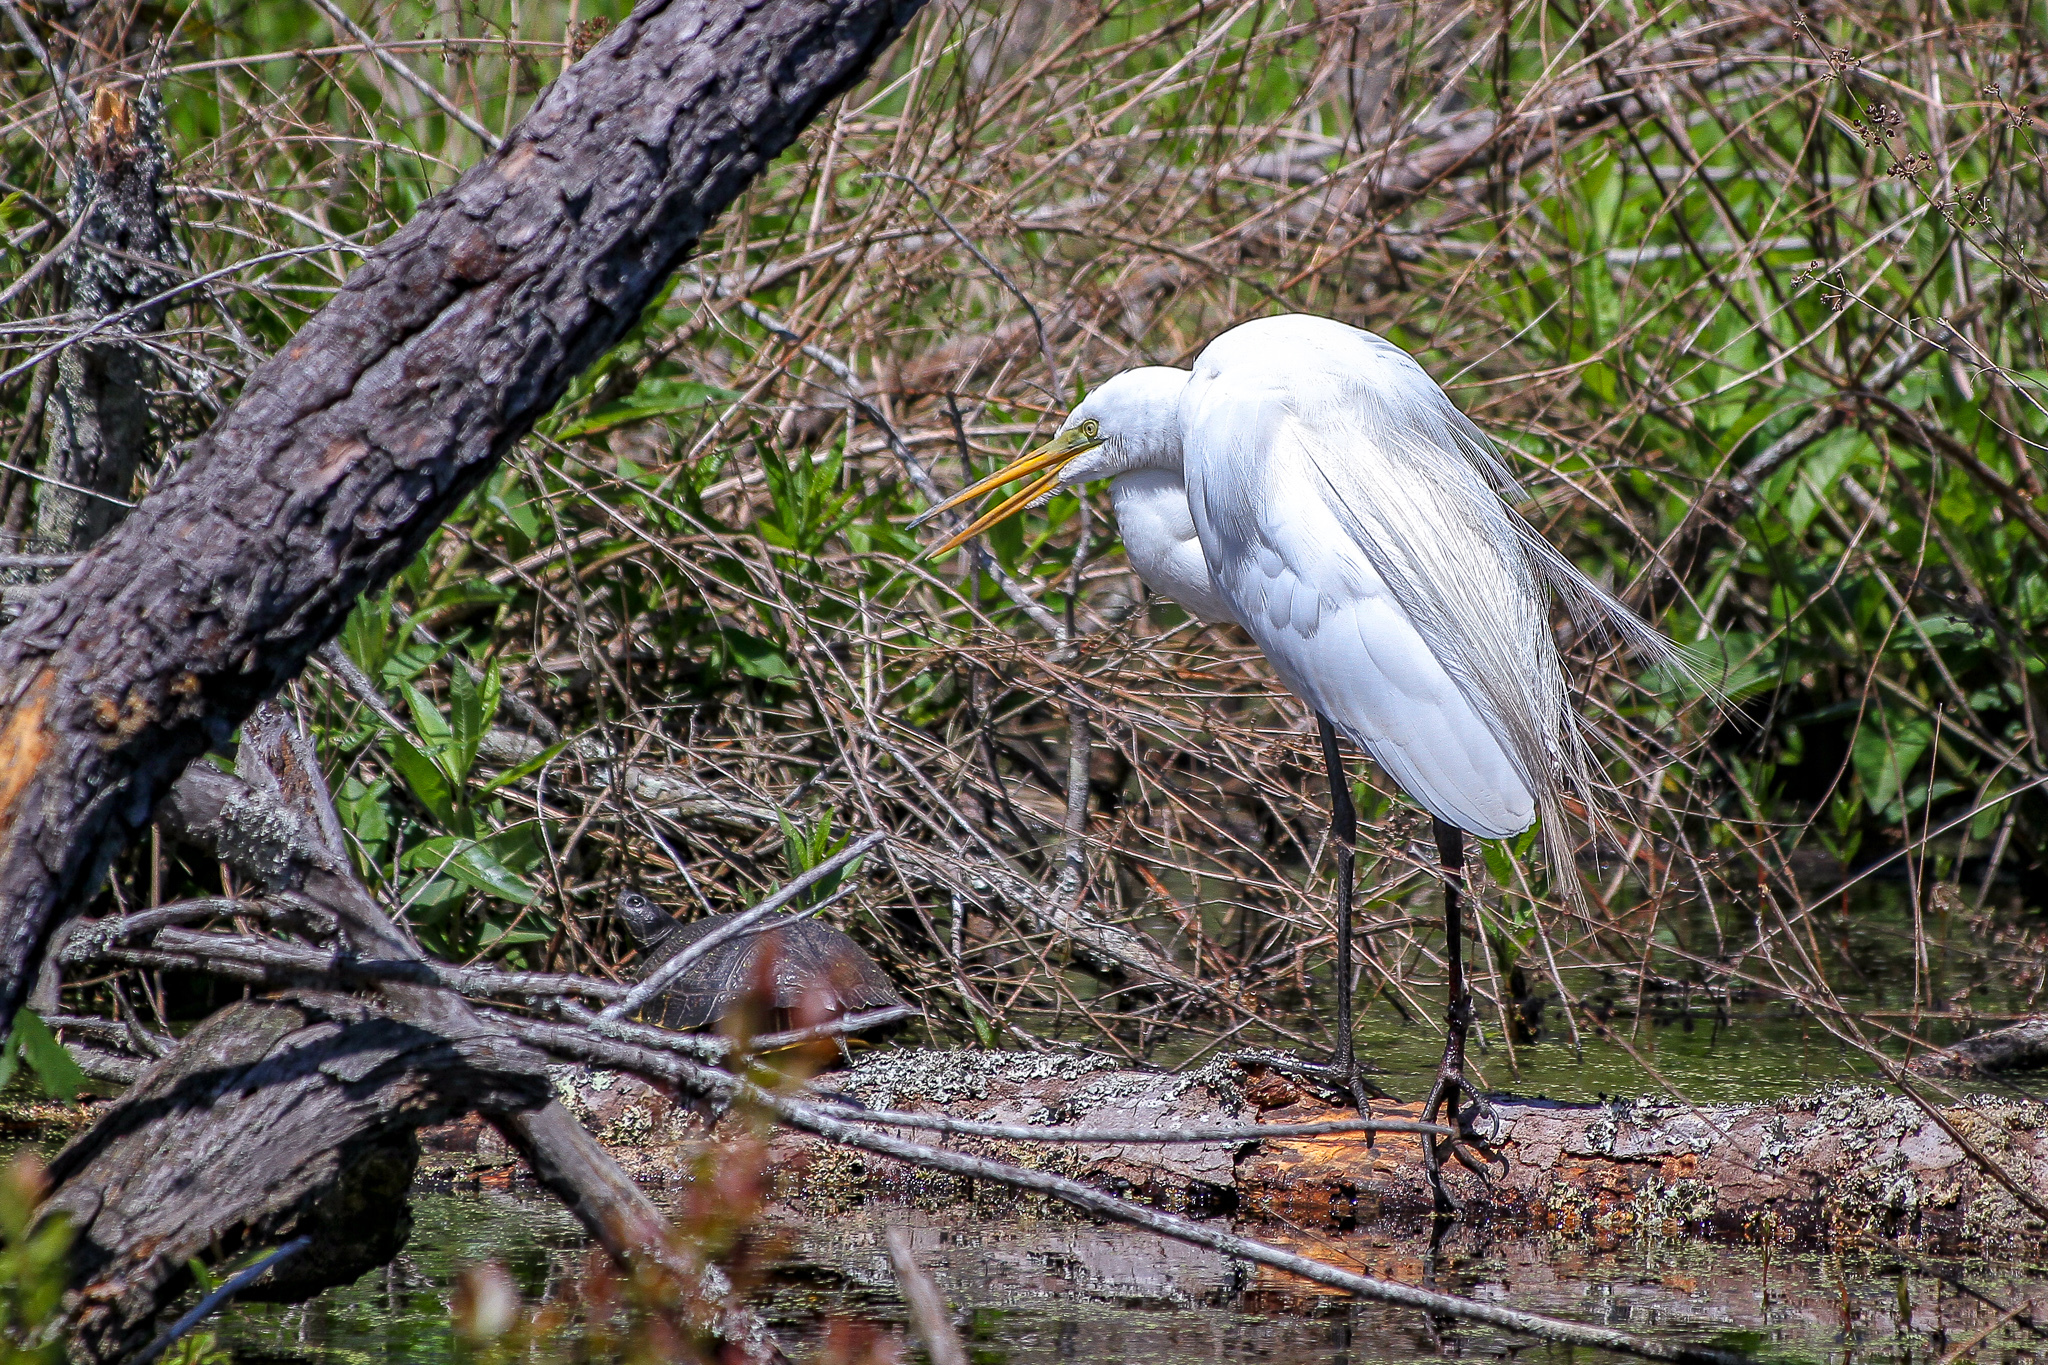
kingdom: Animalia
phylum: Chordata
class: Aves
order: Pelecaniformes
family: Ardeidae
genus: Ardea
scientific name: Ardea alba
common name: Great egret
